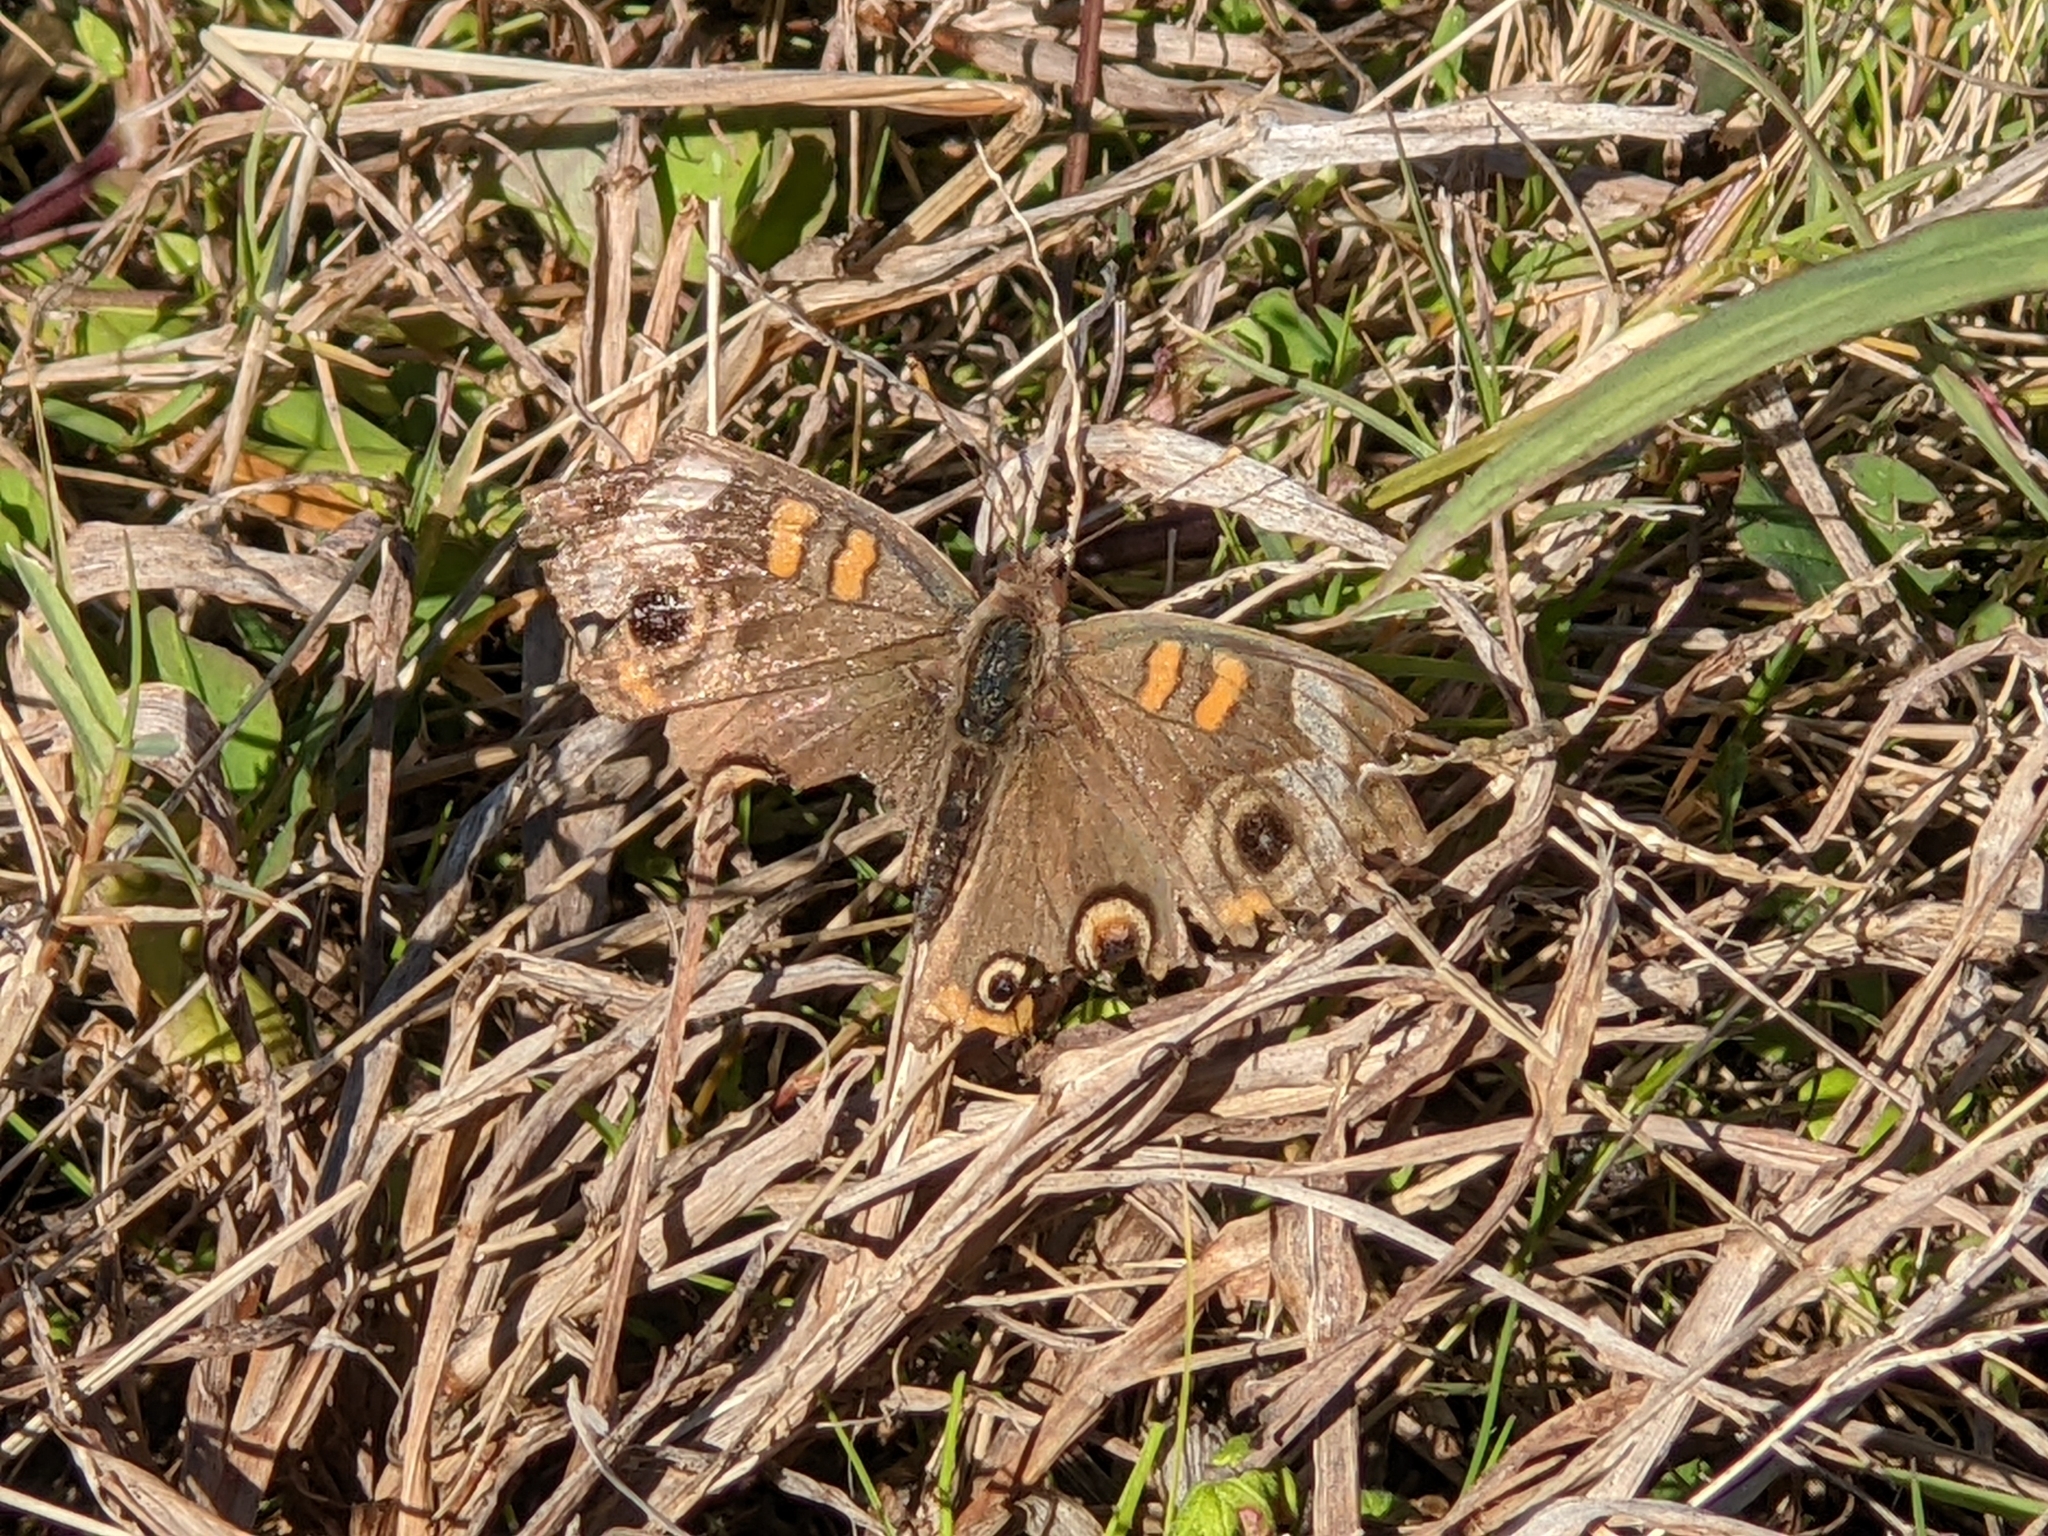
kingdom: Animalia
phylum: Arthropoda
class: Insecta
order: Lepidoptera
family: Nymphalidae
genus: Junonia
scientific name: Junonia coenia
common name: Common buckeye
